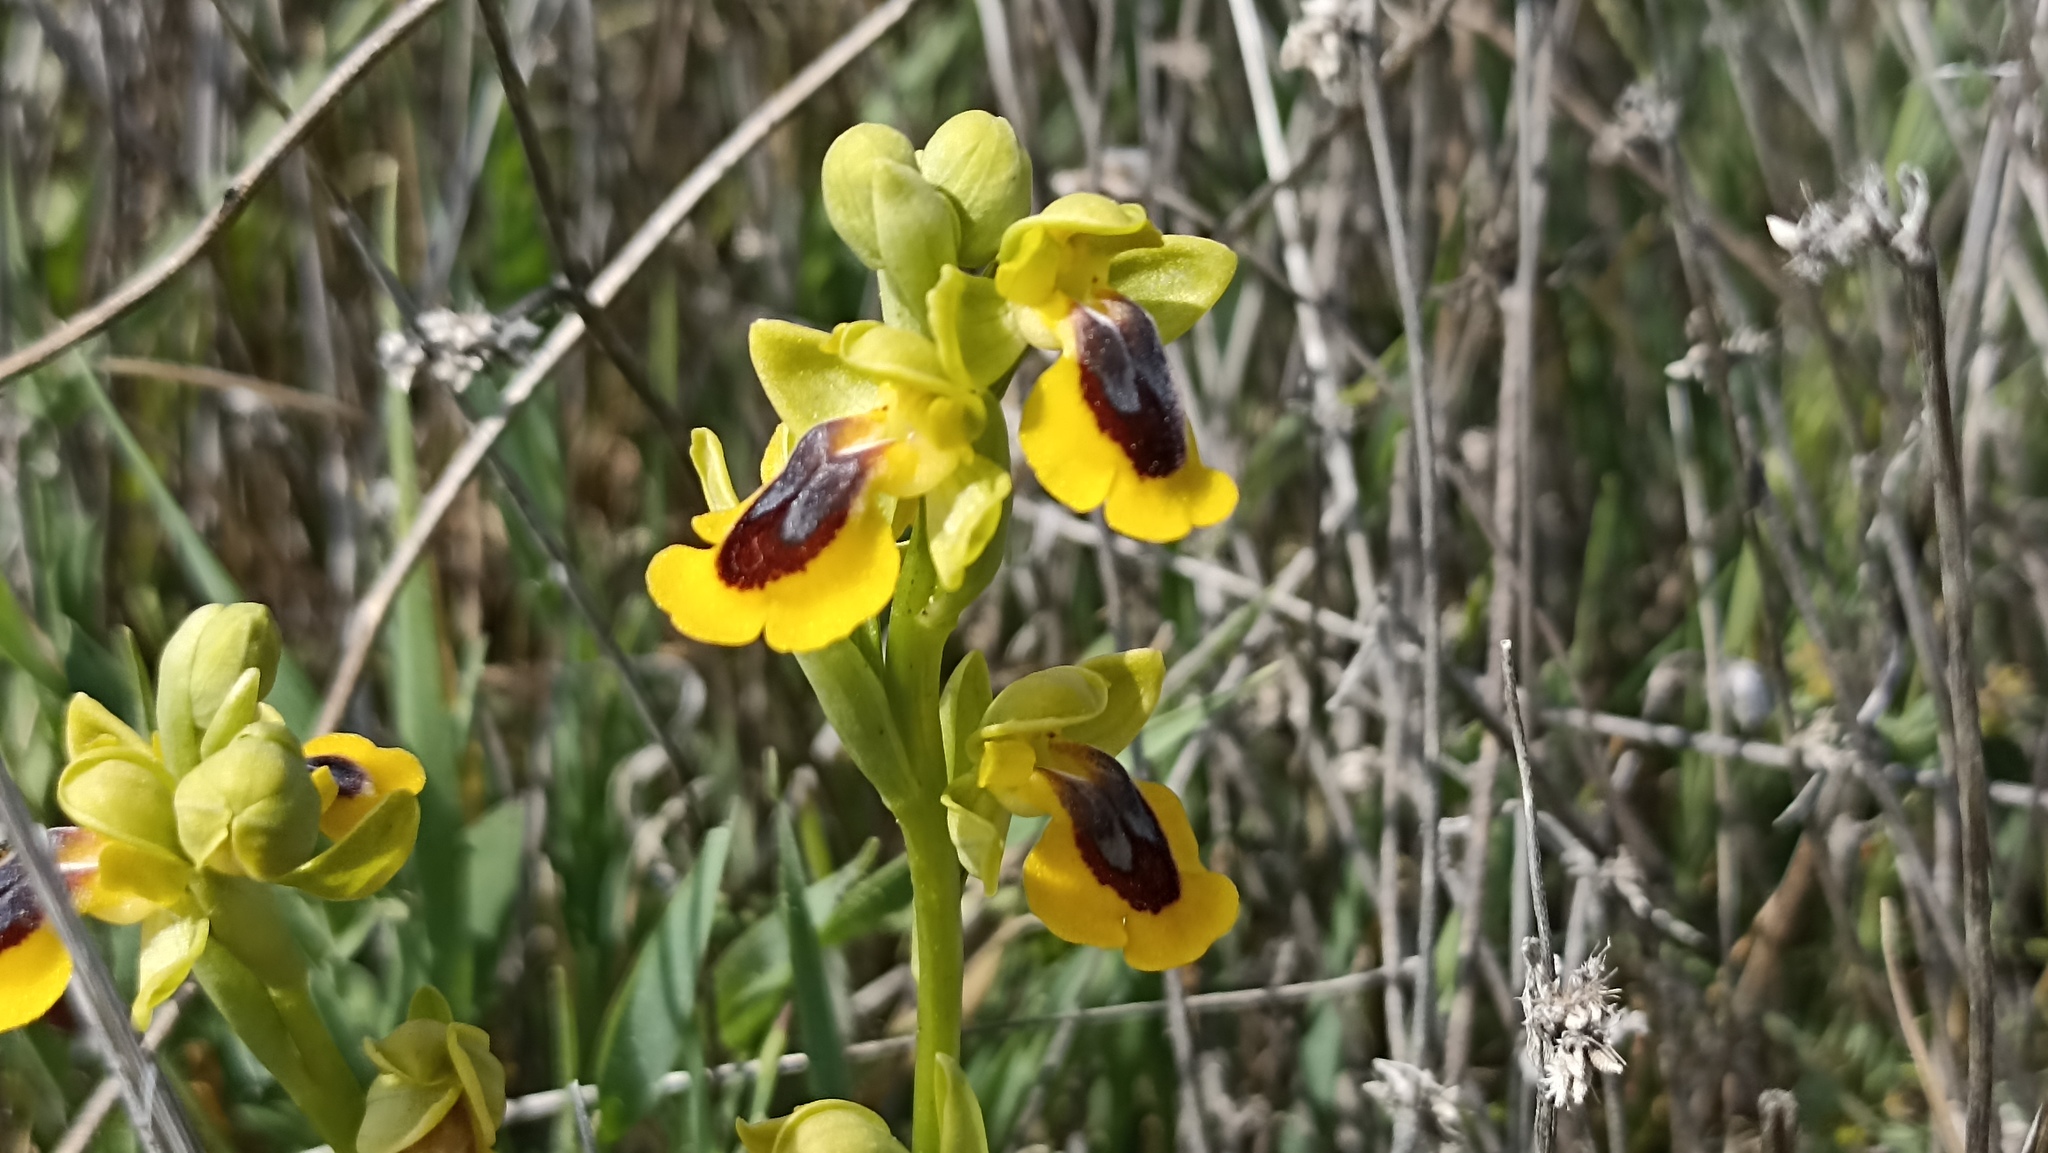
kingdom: Plantae
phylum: Tracheophyta
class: Liliopsida
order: Asparagales
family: Orchidaceae
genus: Ophrys
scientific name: Ophrys lutea
